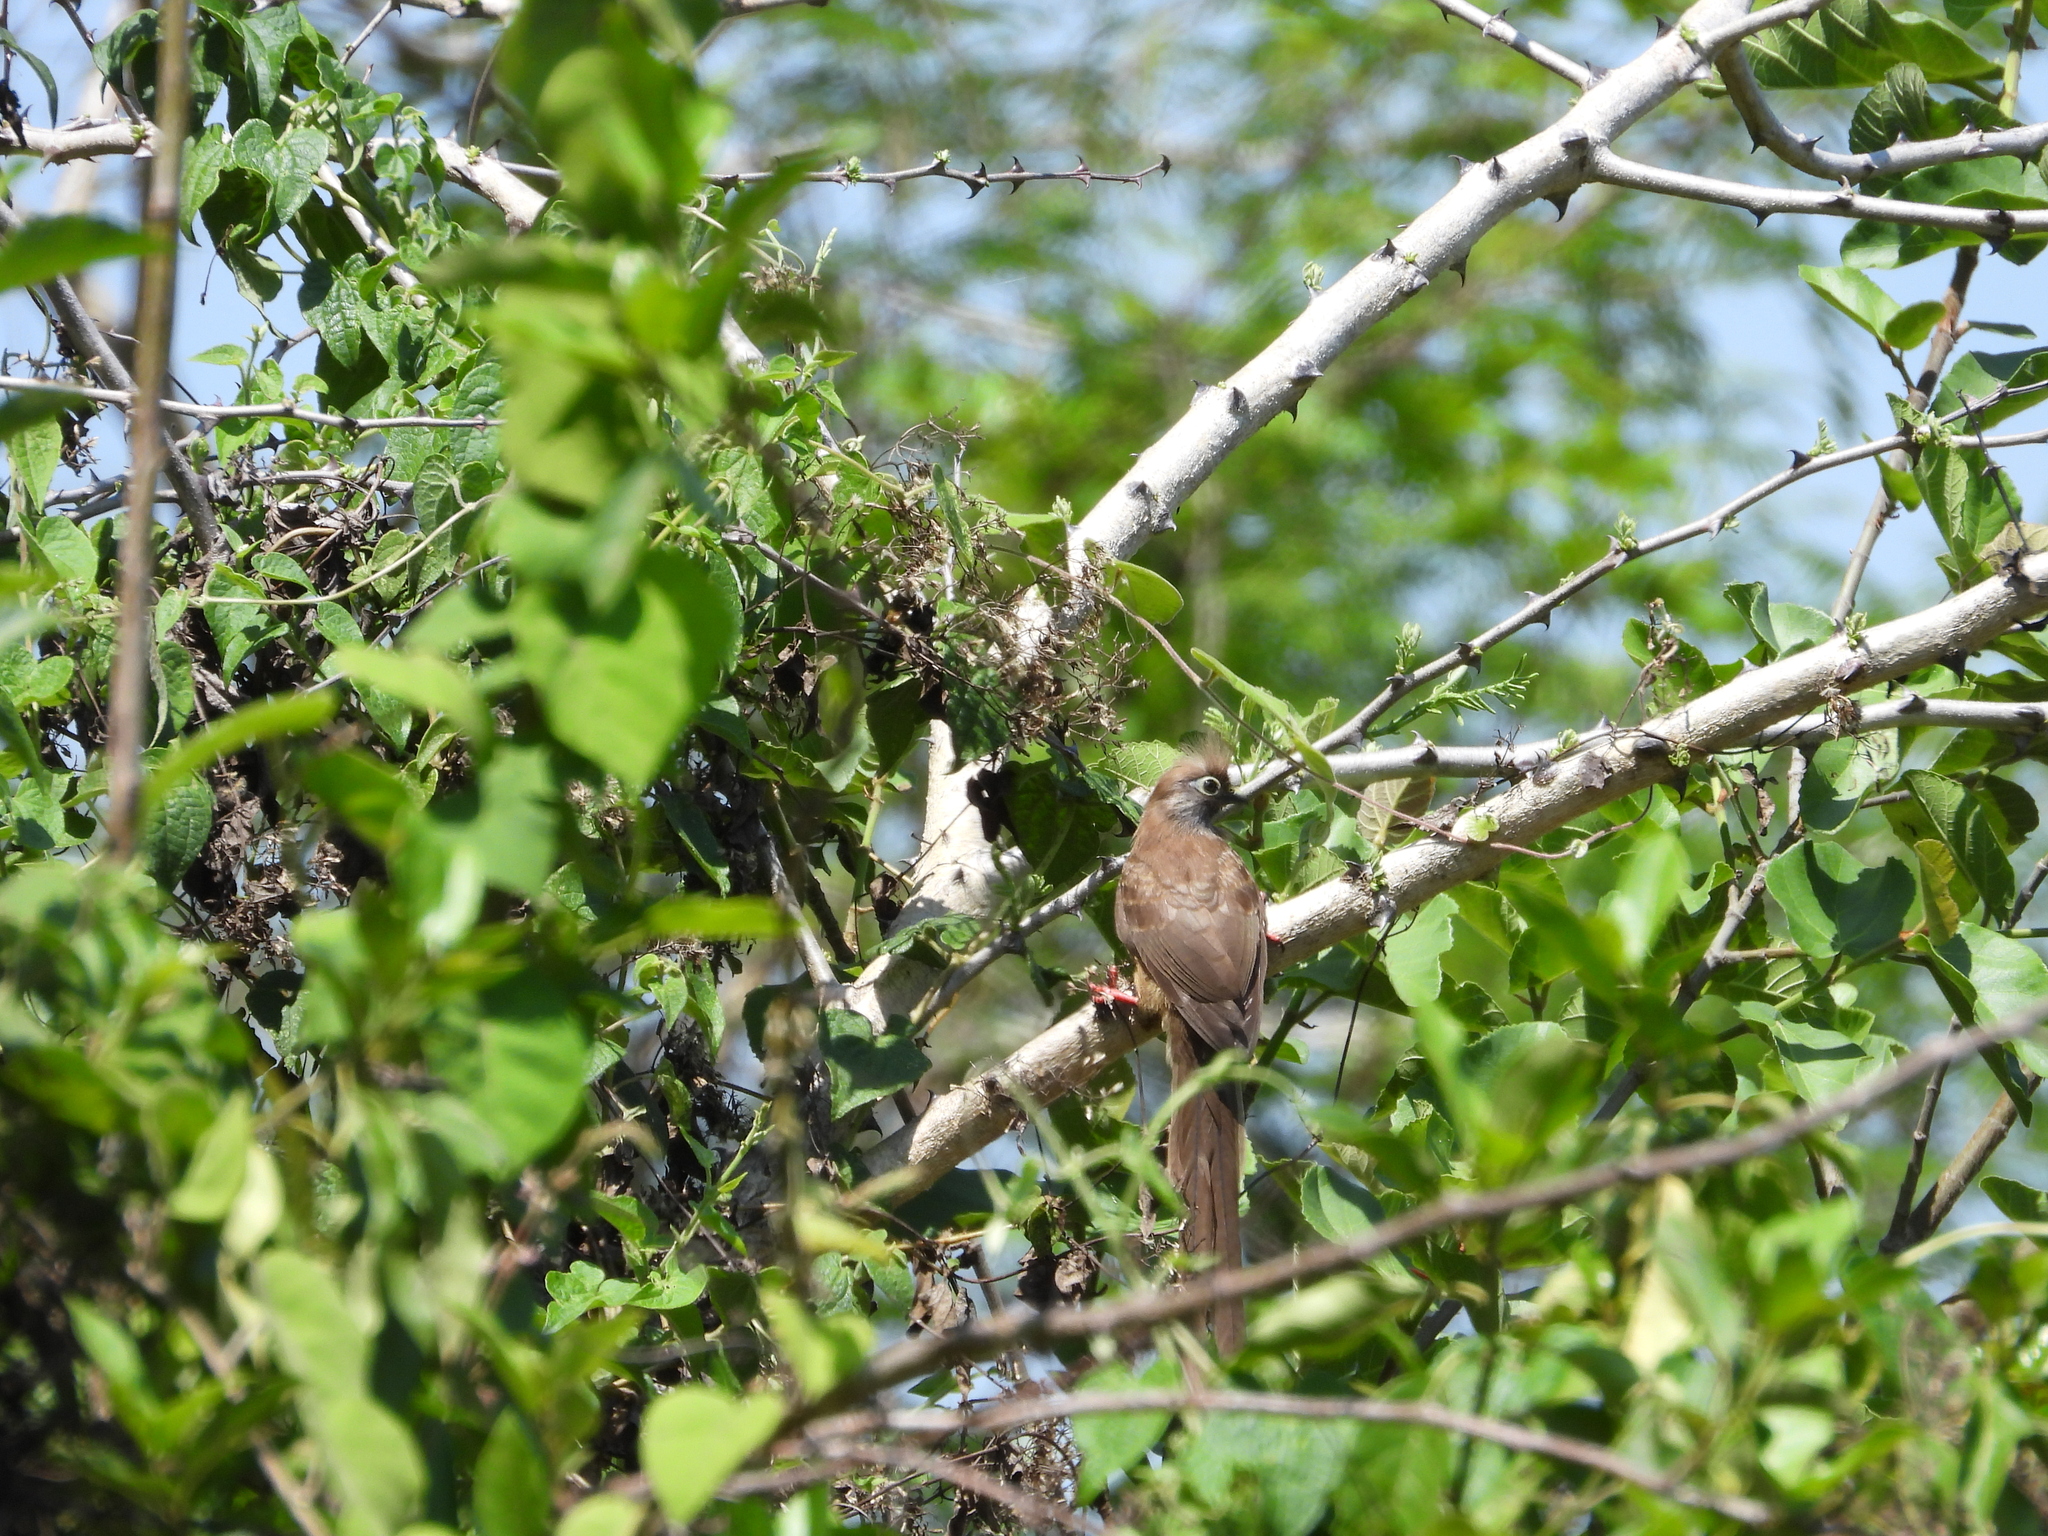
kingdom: Animalia
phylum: Chordata
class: Aves
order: Coliiformes
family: Coliidae
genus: Colius
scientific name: Colius striatus
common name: Speckled mousebird
